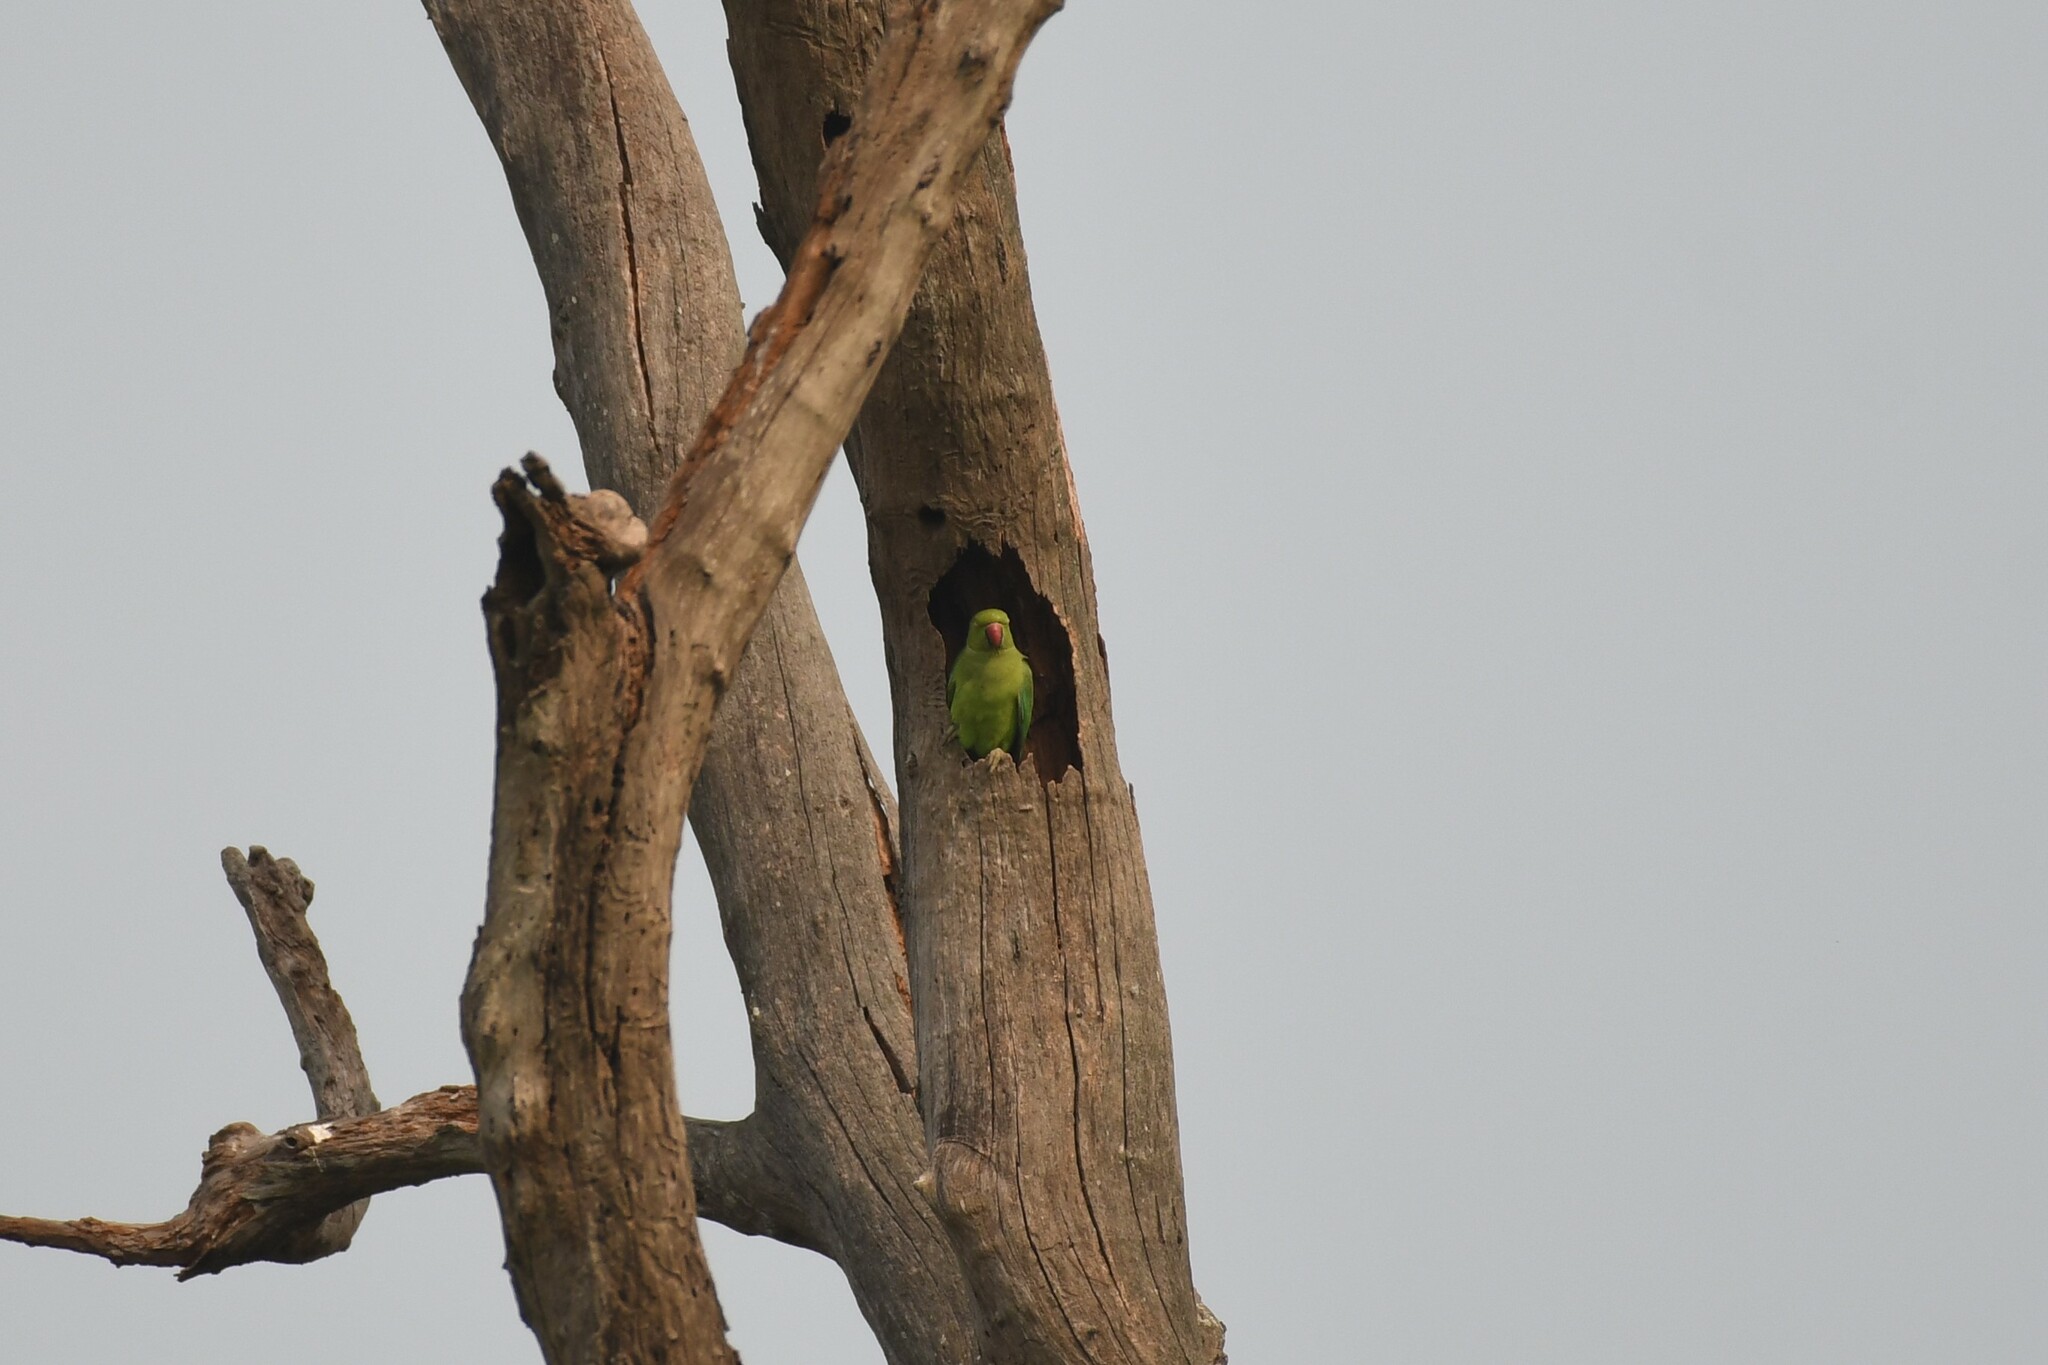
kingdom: Animalia
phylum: Chordata
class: Aves
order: Psittaciformes
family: Psittacidae
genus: Psittacula
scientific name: Psittacula krameri
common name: Rose-ringed parakeet
